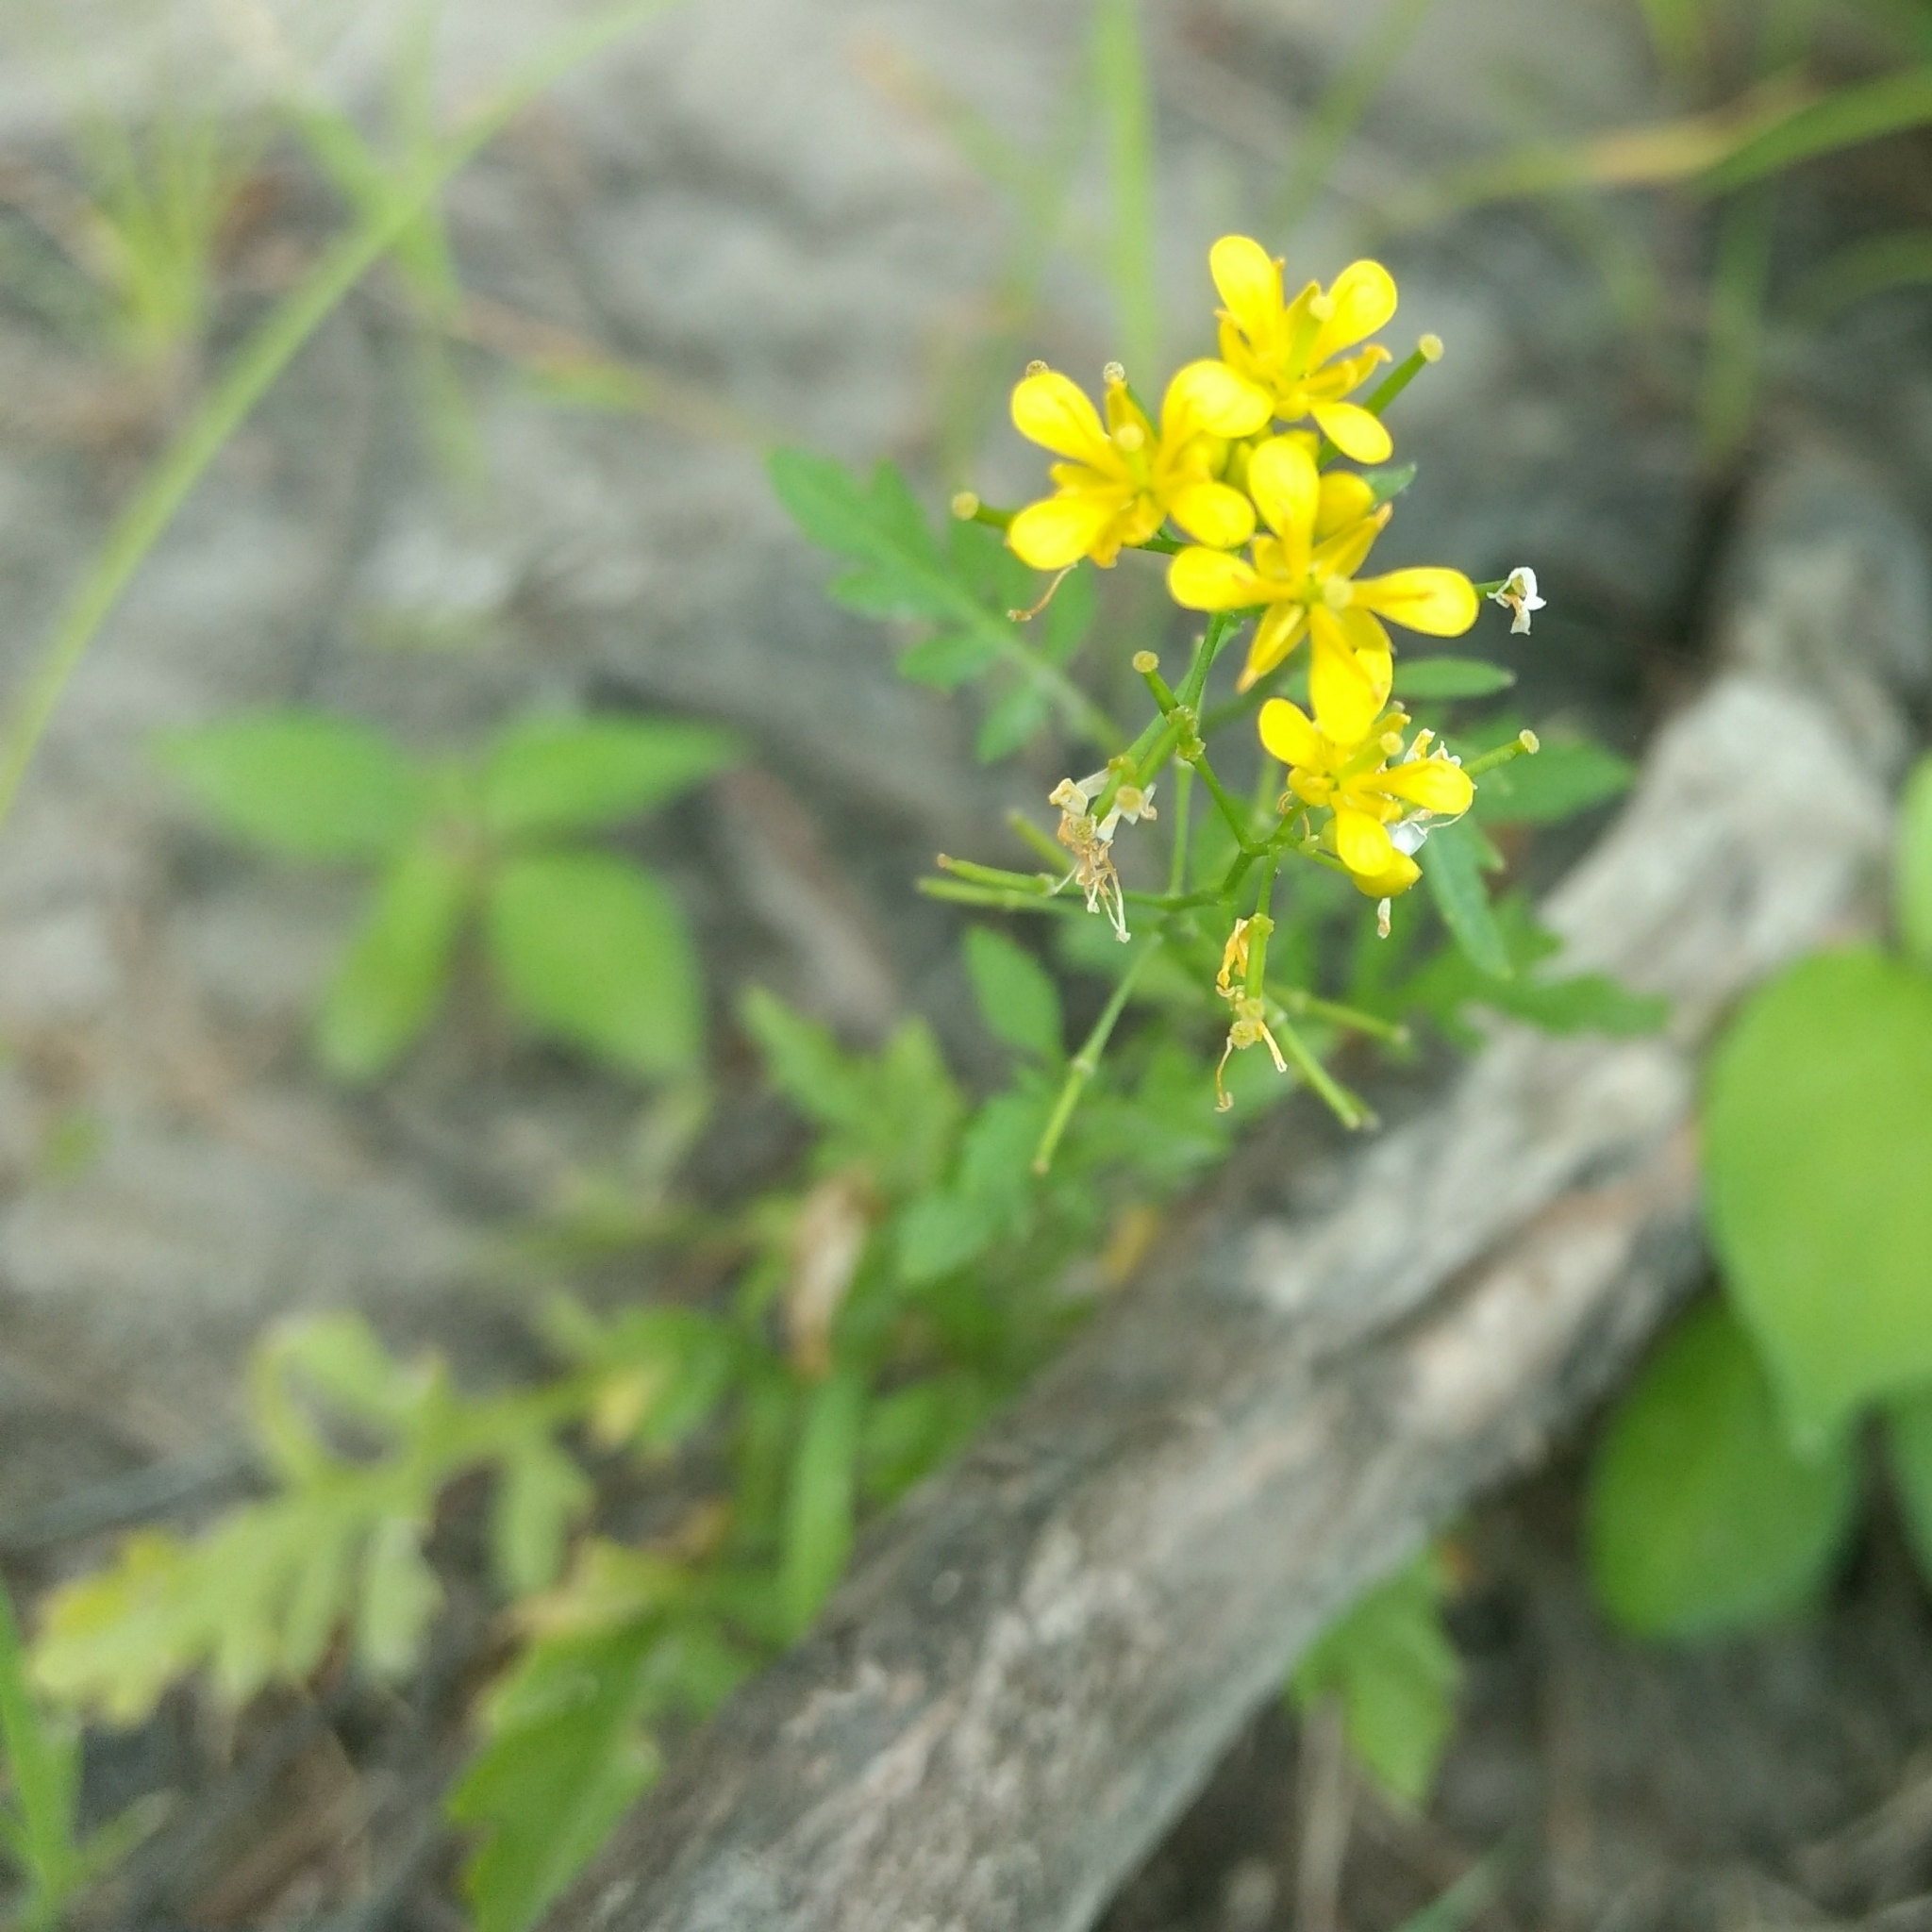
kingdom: Plantae
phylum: Tracheophyta
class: Magnoliopsida
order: Brassicales
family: Brassicaceae
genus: Rorippa
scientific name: Rorippa sylvestris
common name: Creeping yellowcress
